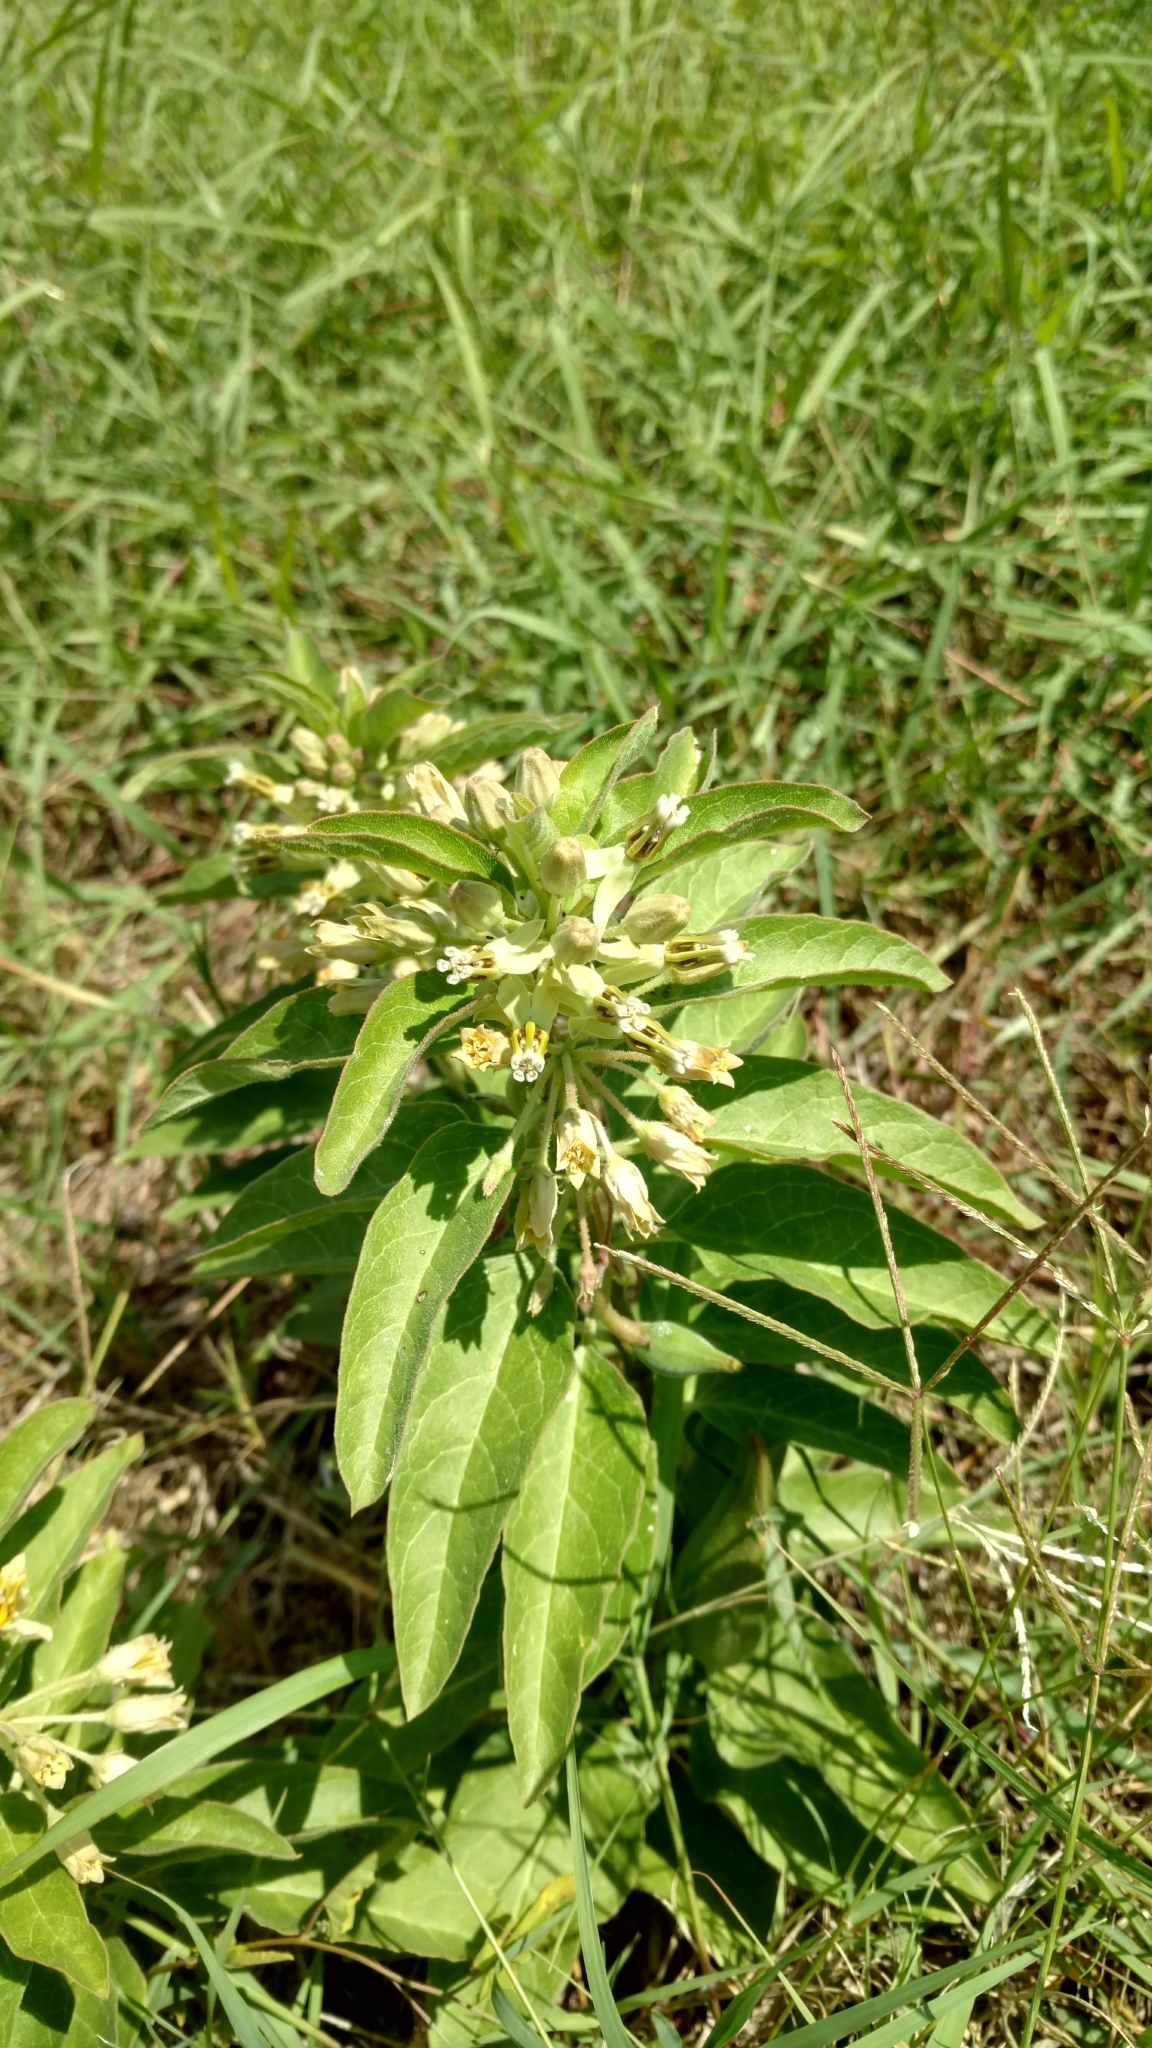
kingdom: Plantae
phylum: Tracheophyta
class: Magnoliopsida
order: Gentianales
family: Apocynaceae
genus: Asclepias
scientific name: Asclepias oenotheroides
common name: Zizotes milkweed
